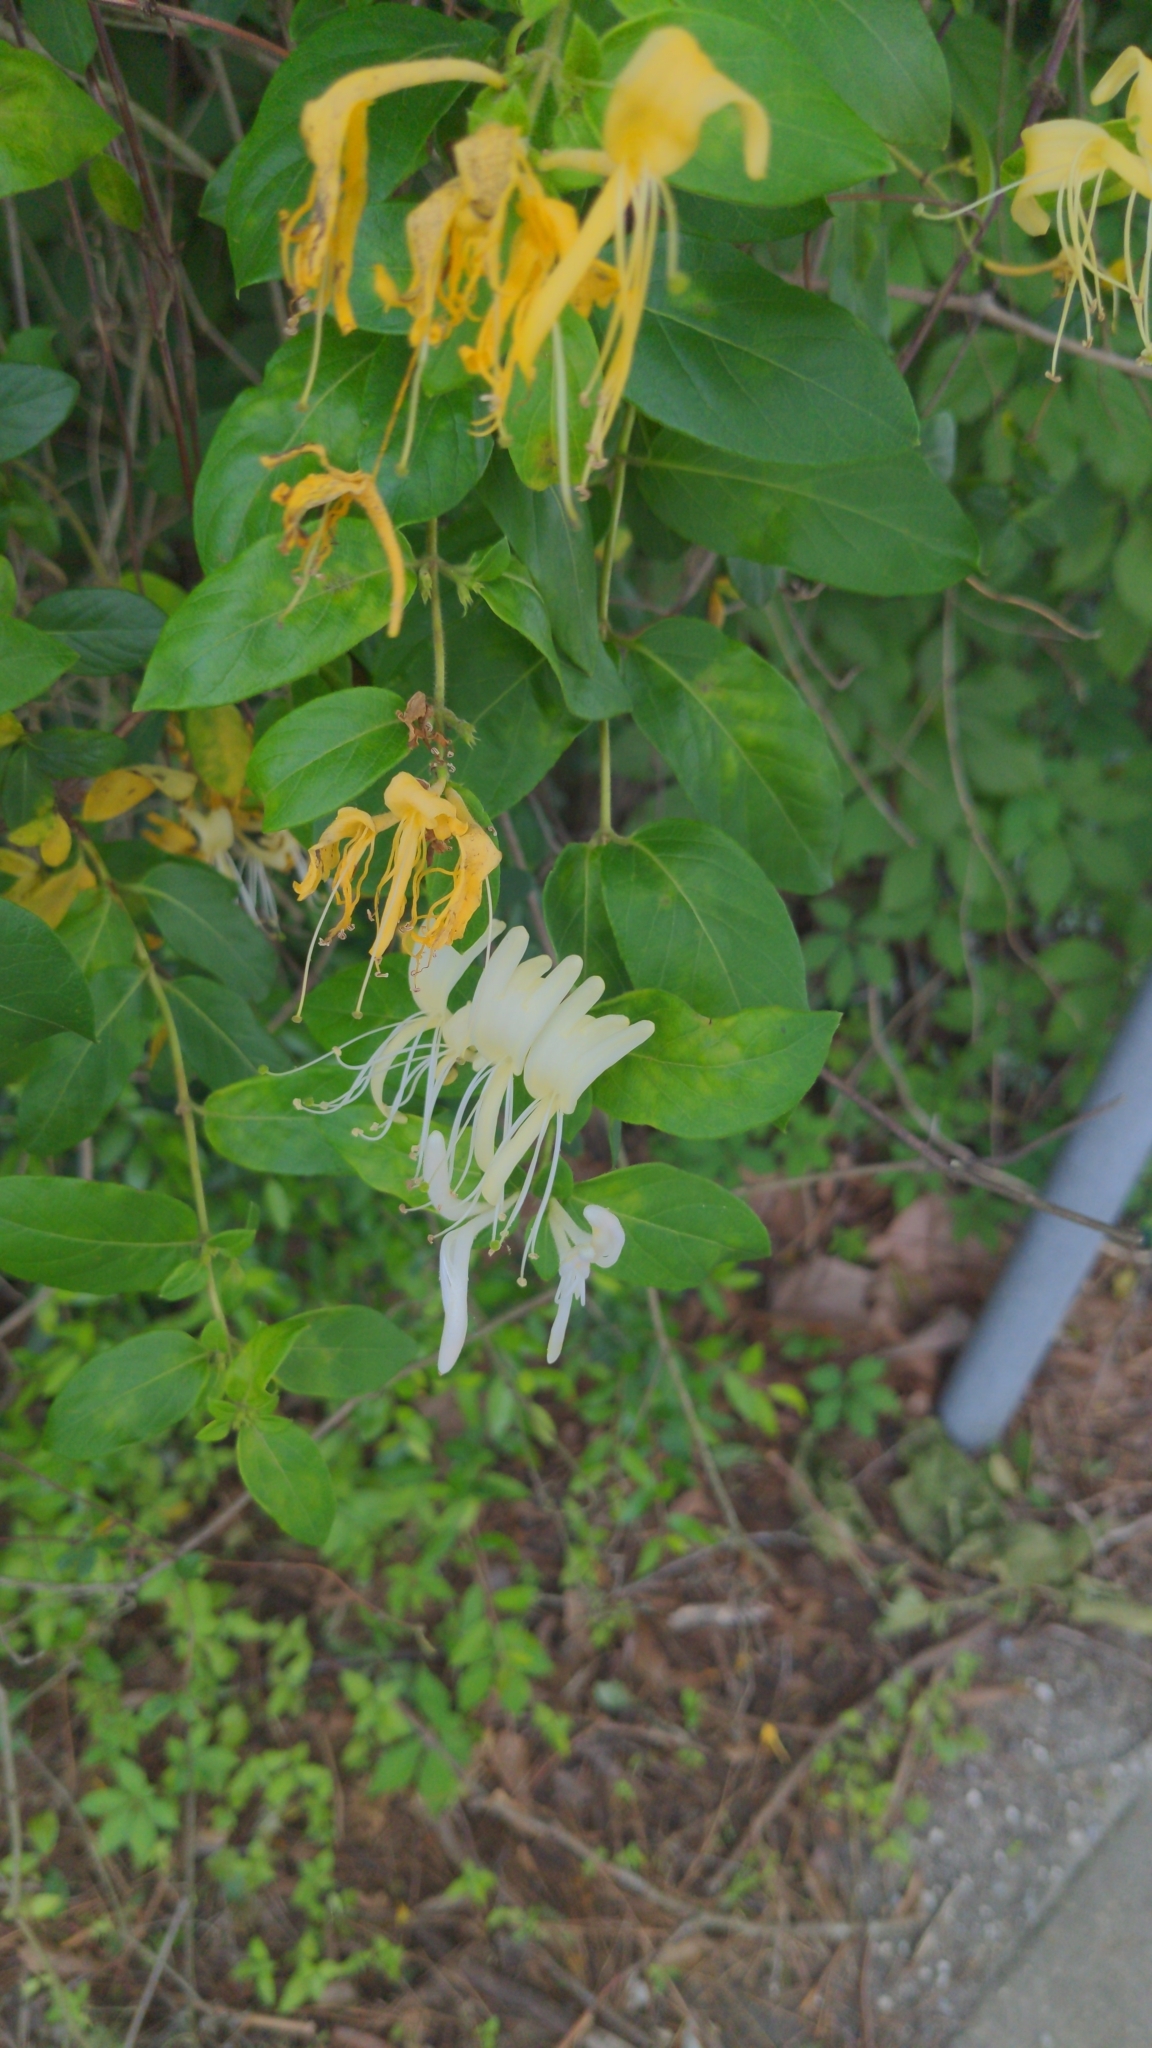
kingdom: Plantae
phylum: Tracheophyta
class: Magnoliopsida
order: Dipsacales
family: Caprifoliaceae
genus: Lonicera
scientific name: Lonicera japonica
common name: Japanese honeysuckle
